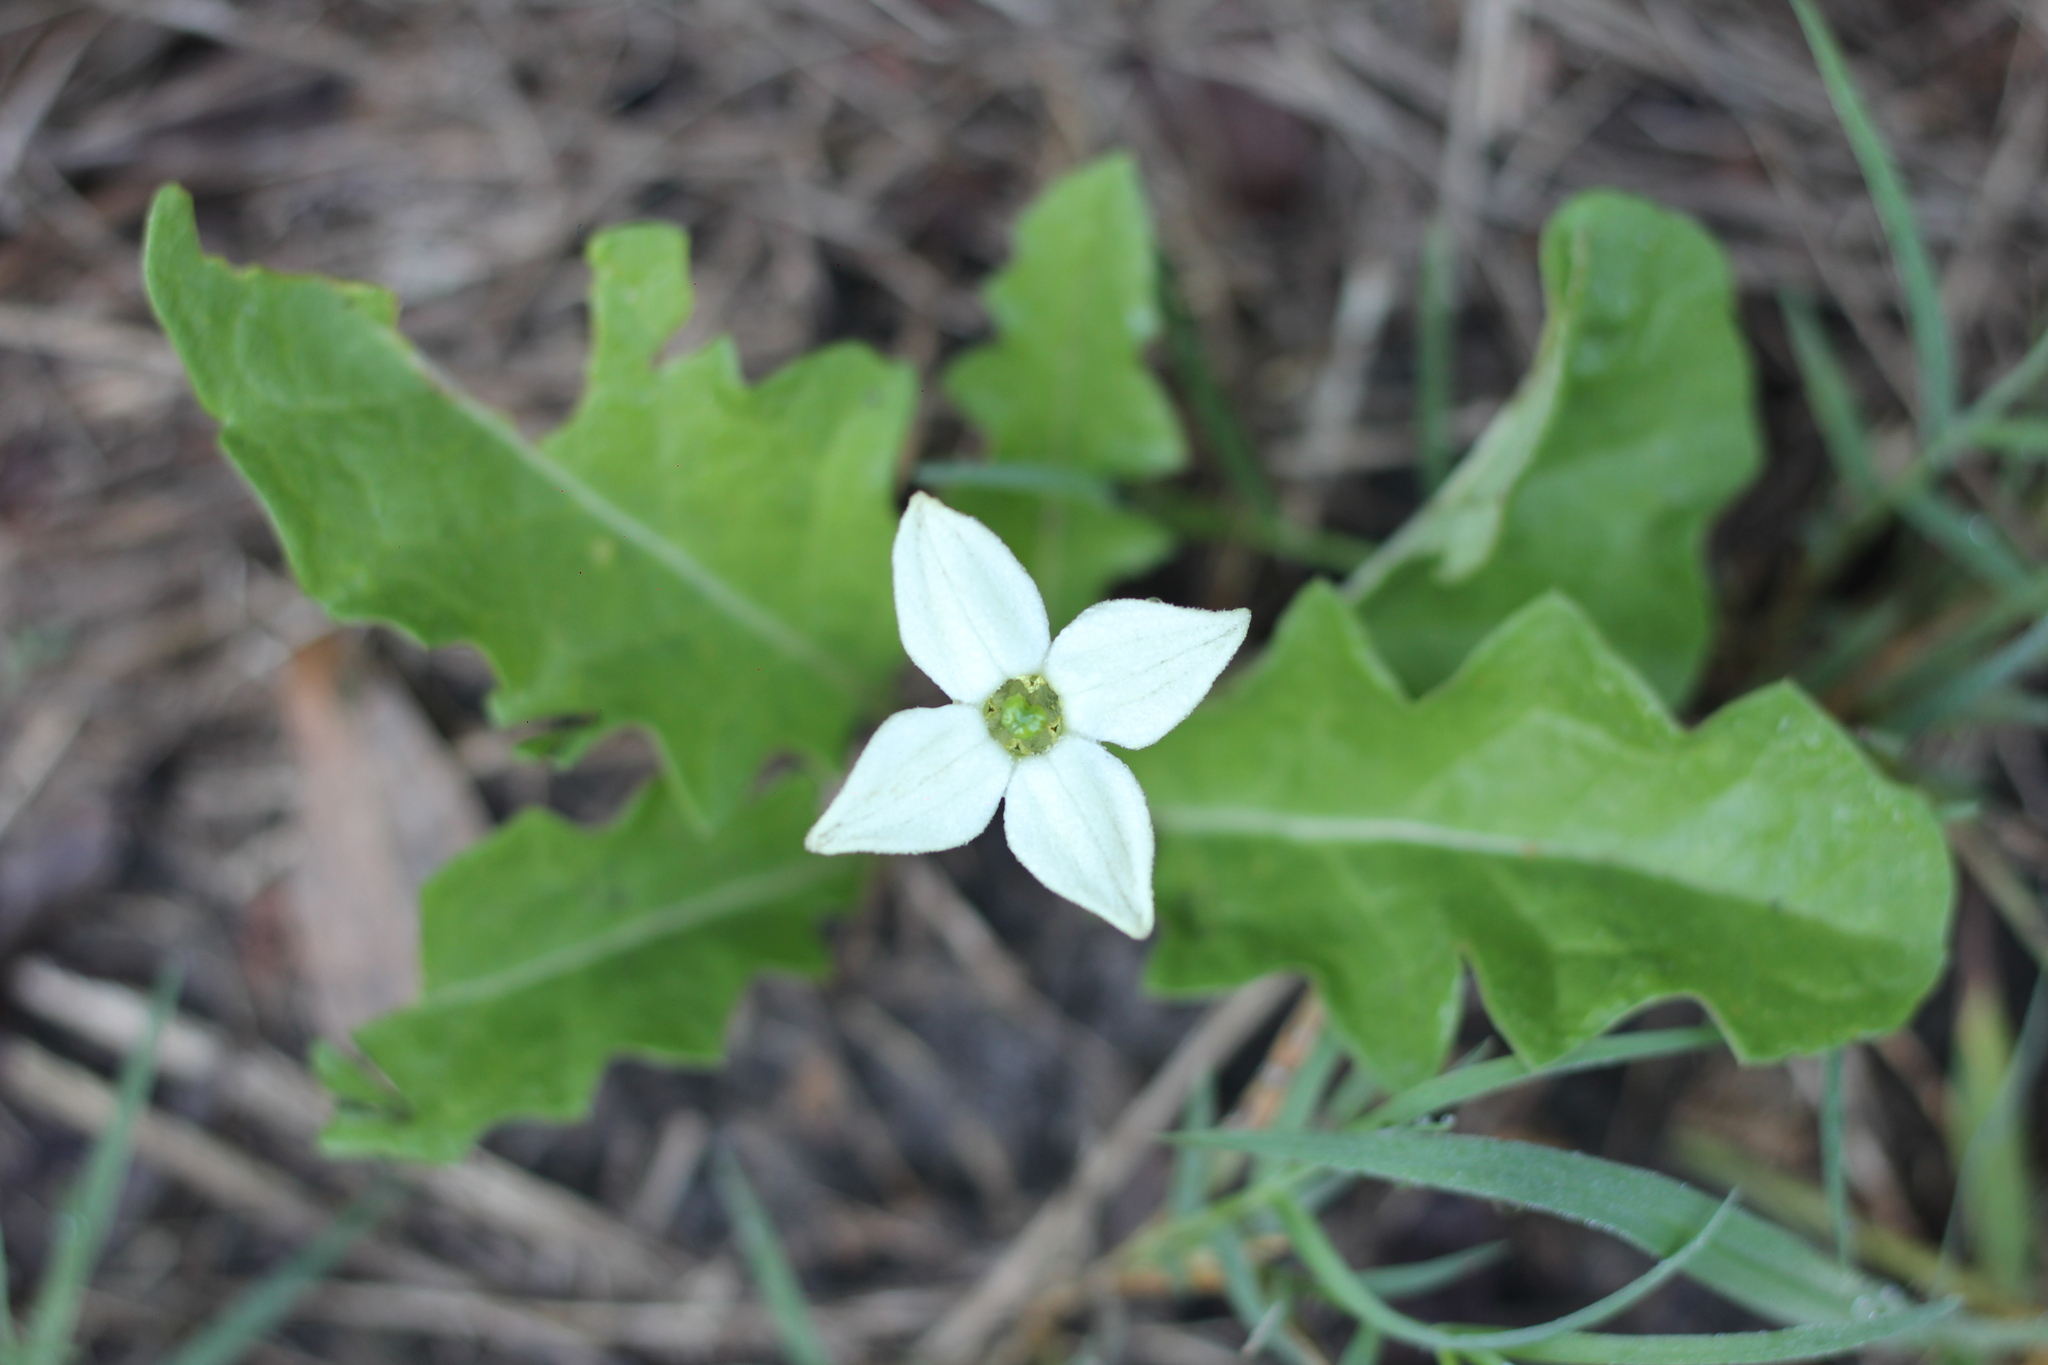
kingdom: Plantae
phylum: Tracheophyta
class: Magnoliopsida
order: Solanales
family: Solanaceae
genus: Jaborosa
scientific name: Jaborosa runcinata
